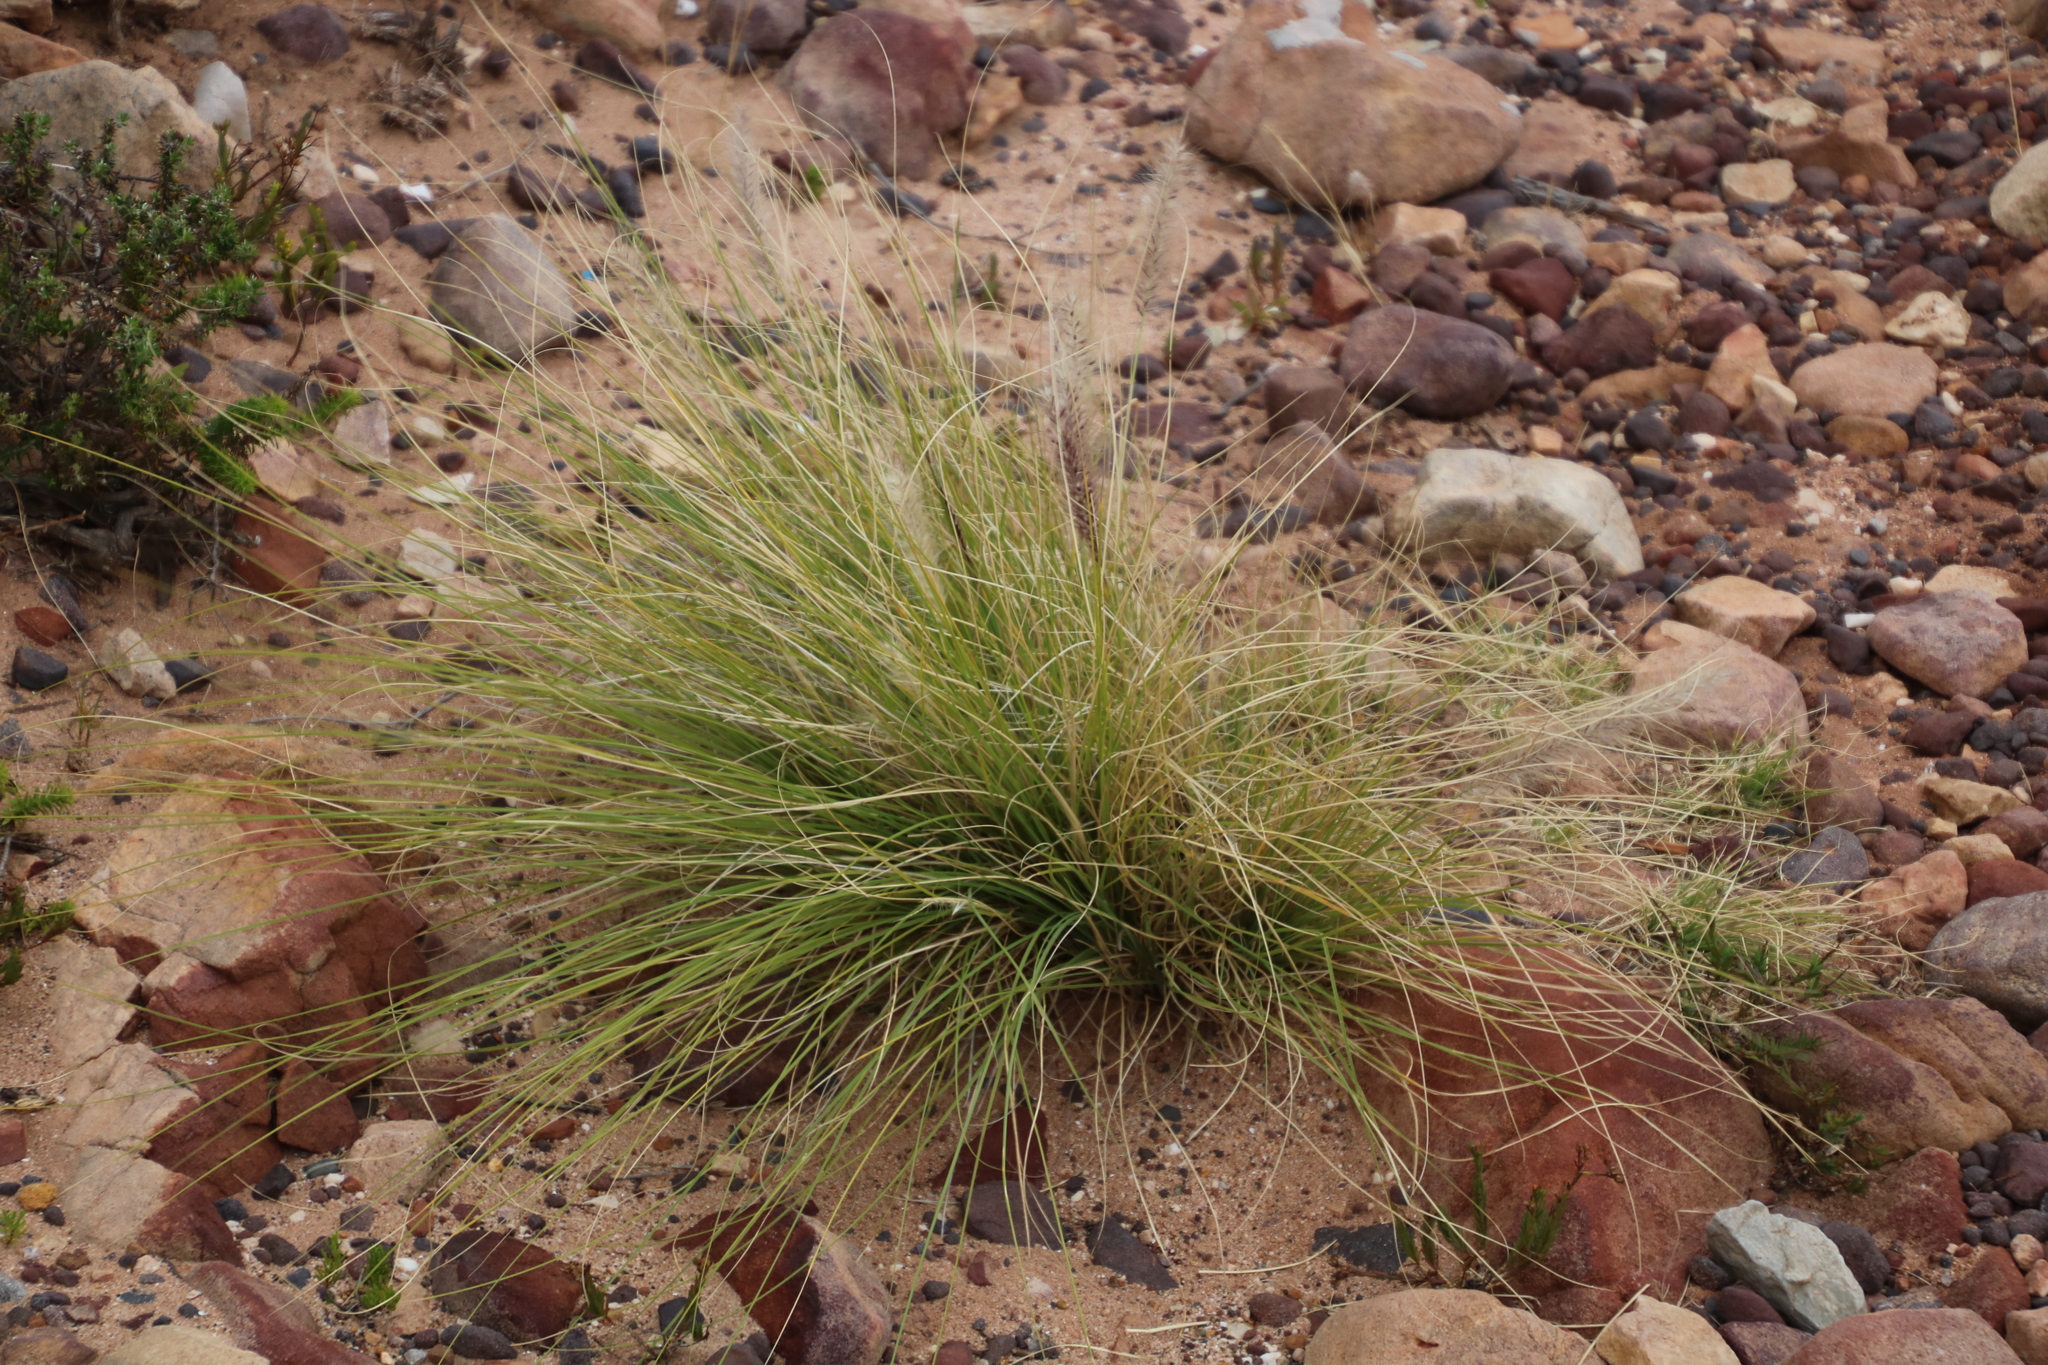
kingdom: Plantae
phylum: Tracheophyta
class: Liliopsida
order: Poales
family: Poaceae
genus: Cenchrus
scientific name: Cenchrus setaceus
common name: Crimson fountaingrass
